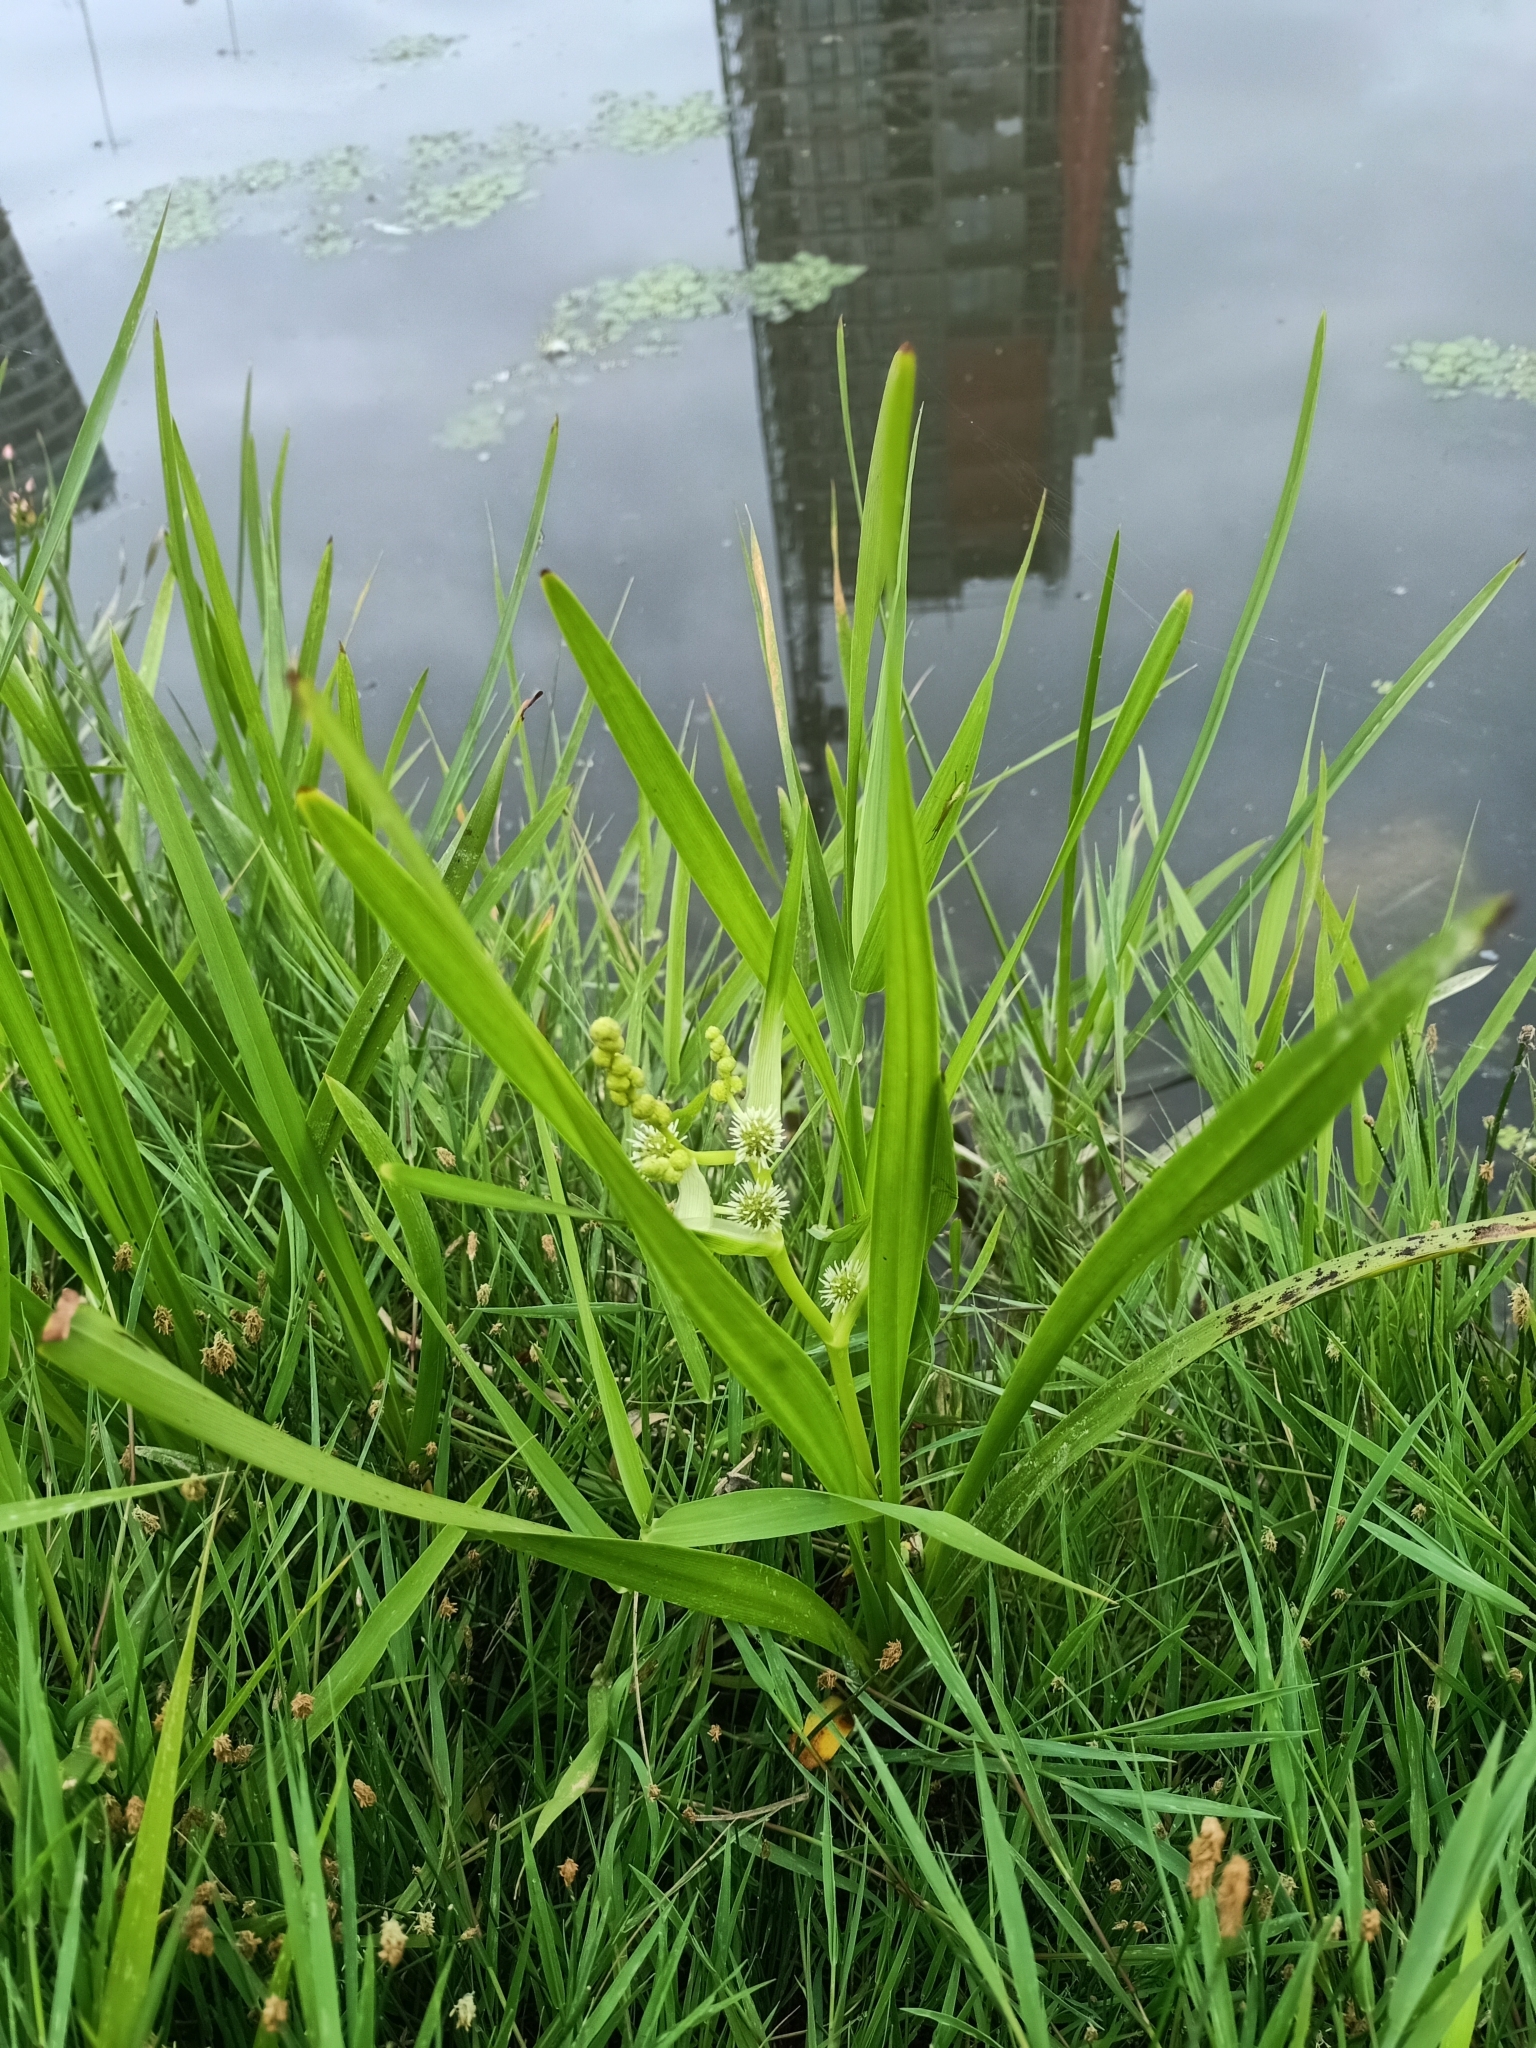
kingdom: Plantae
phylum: Tracheophyta
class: Liliopsida
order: Poales
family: Typhaceae
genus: Sparganium
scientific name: Sparganium erectum
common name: Branched bur-reed
